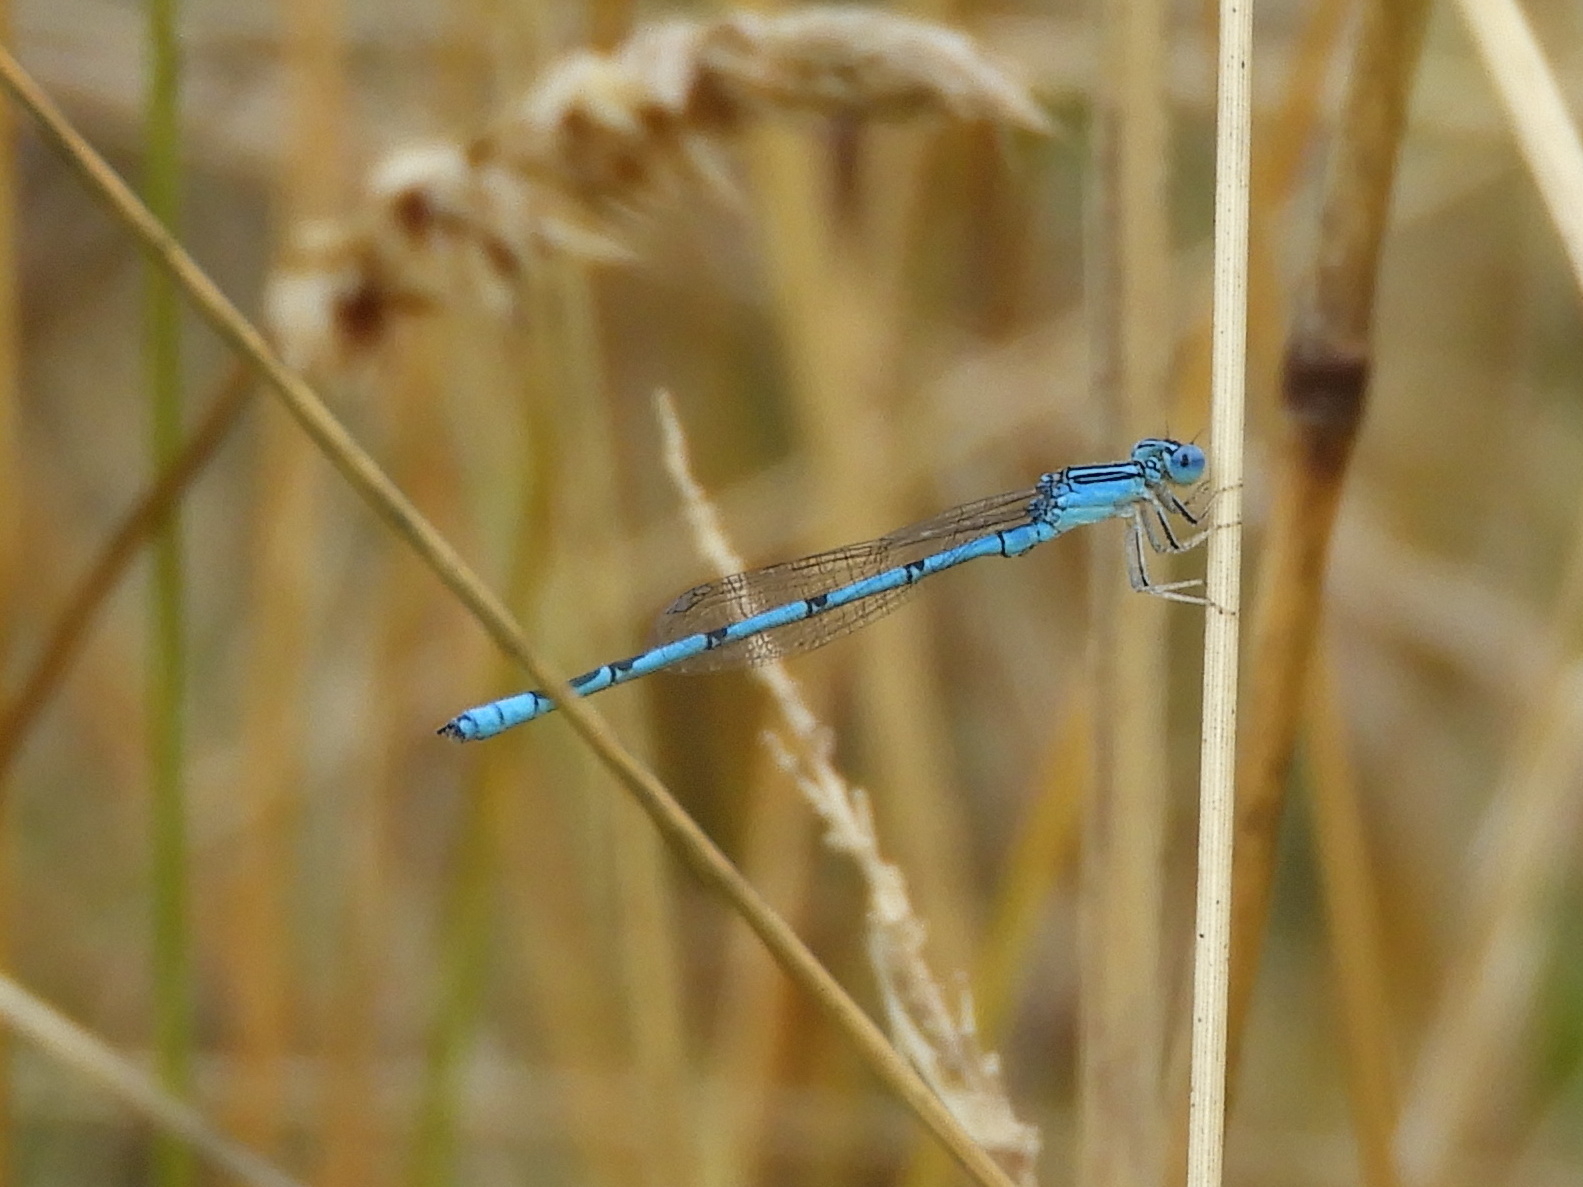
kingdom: Animalia
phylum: Arthropoda
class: Insecta
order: Odonata
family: Coenagrionidae
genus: Enallagma
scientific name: Enallagma basidens
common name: Double-striped bluet
